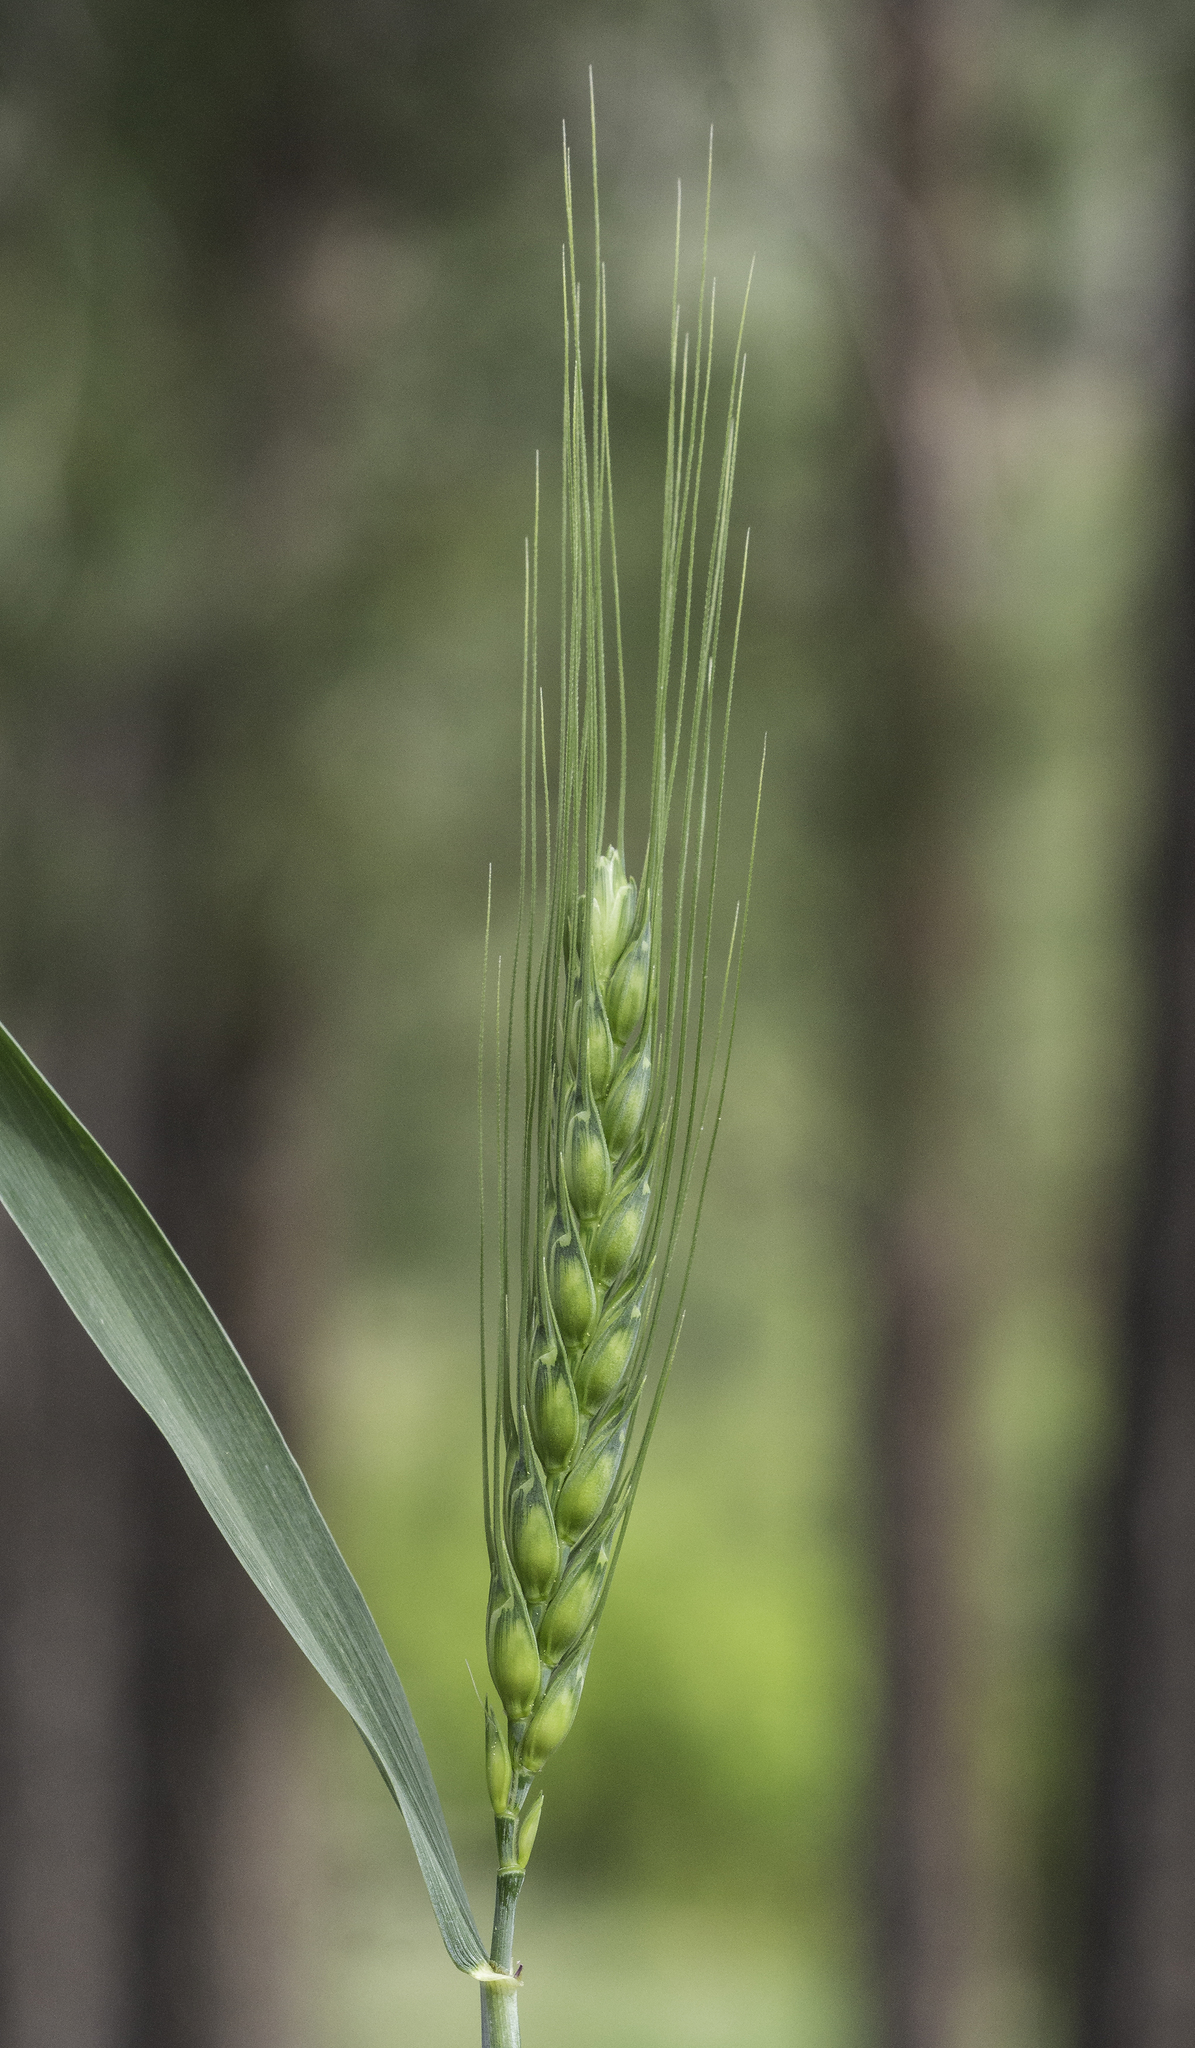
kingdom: Plantae
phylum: Tracheophyta
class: Liliopsida
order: Poales
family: Poaceae
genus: Triticum
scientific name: Triticum aestivum
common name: Common wheat
